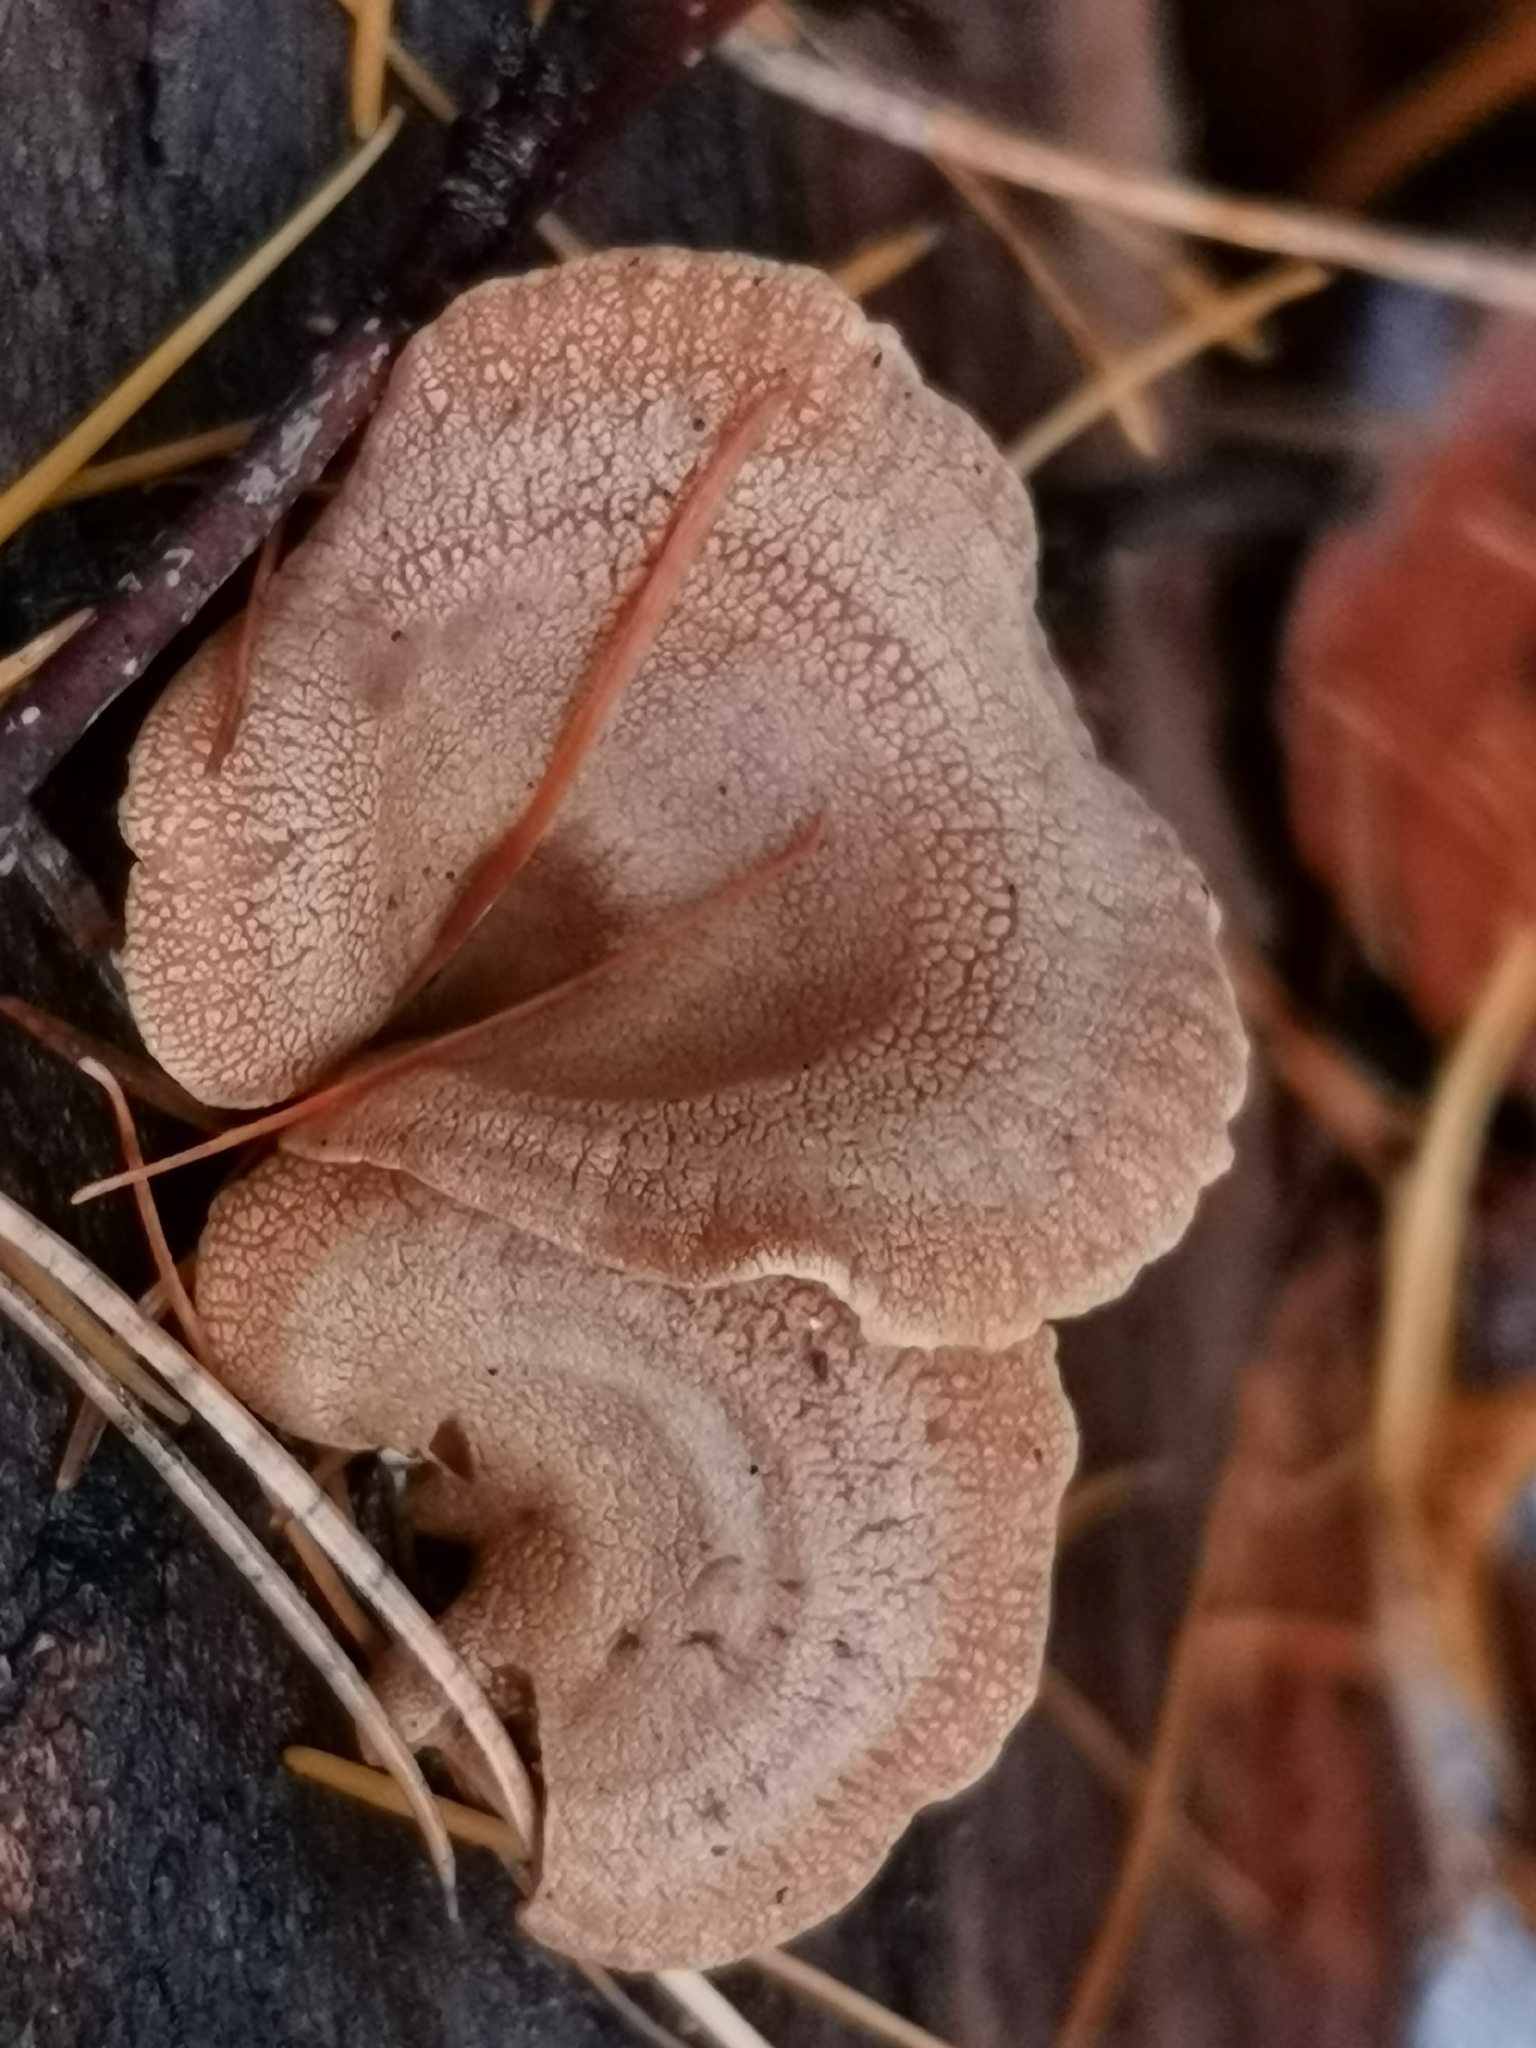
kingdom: Fungi
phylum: Basidiomycota
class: Agaricomycetes
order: Agaricales
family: Mycenaceae
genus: Panellus
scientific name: Panellus stipticus
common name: Bitter oysterling
